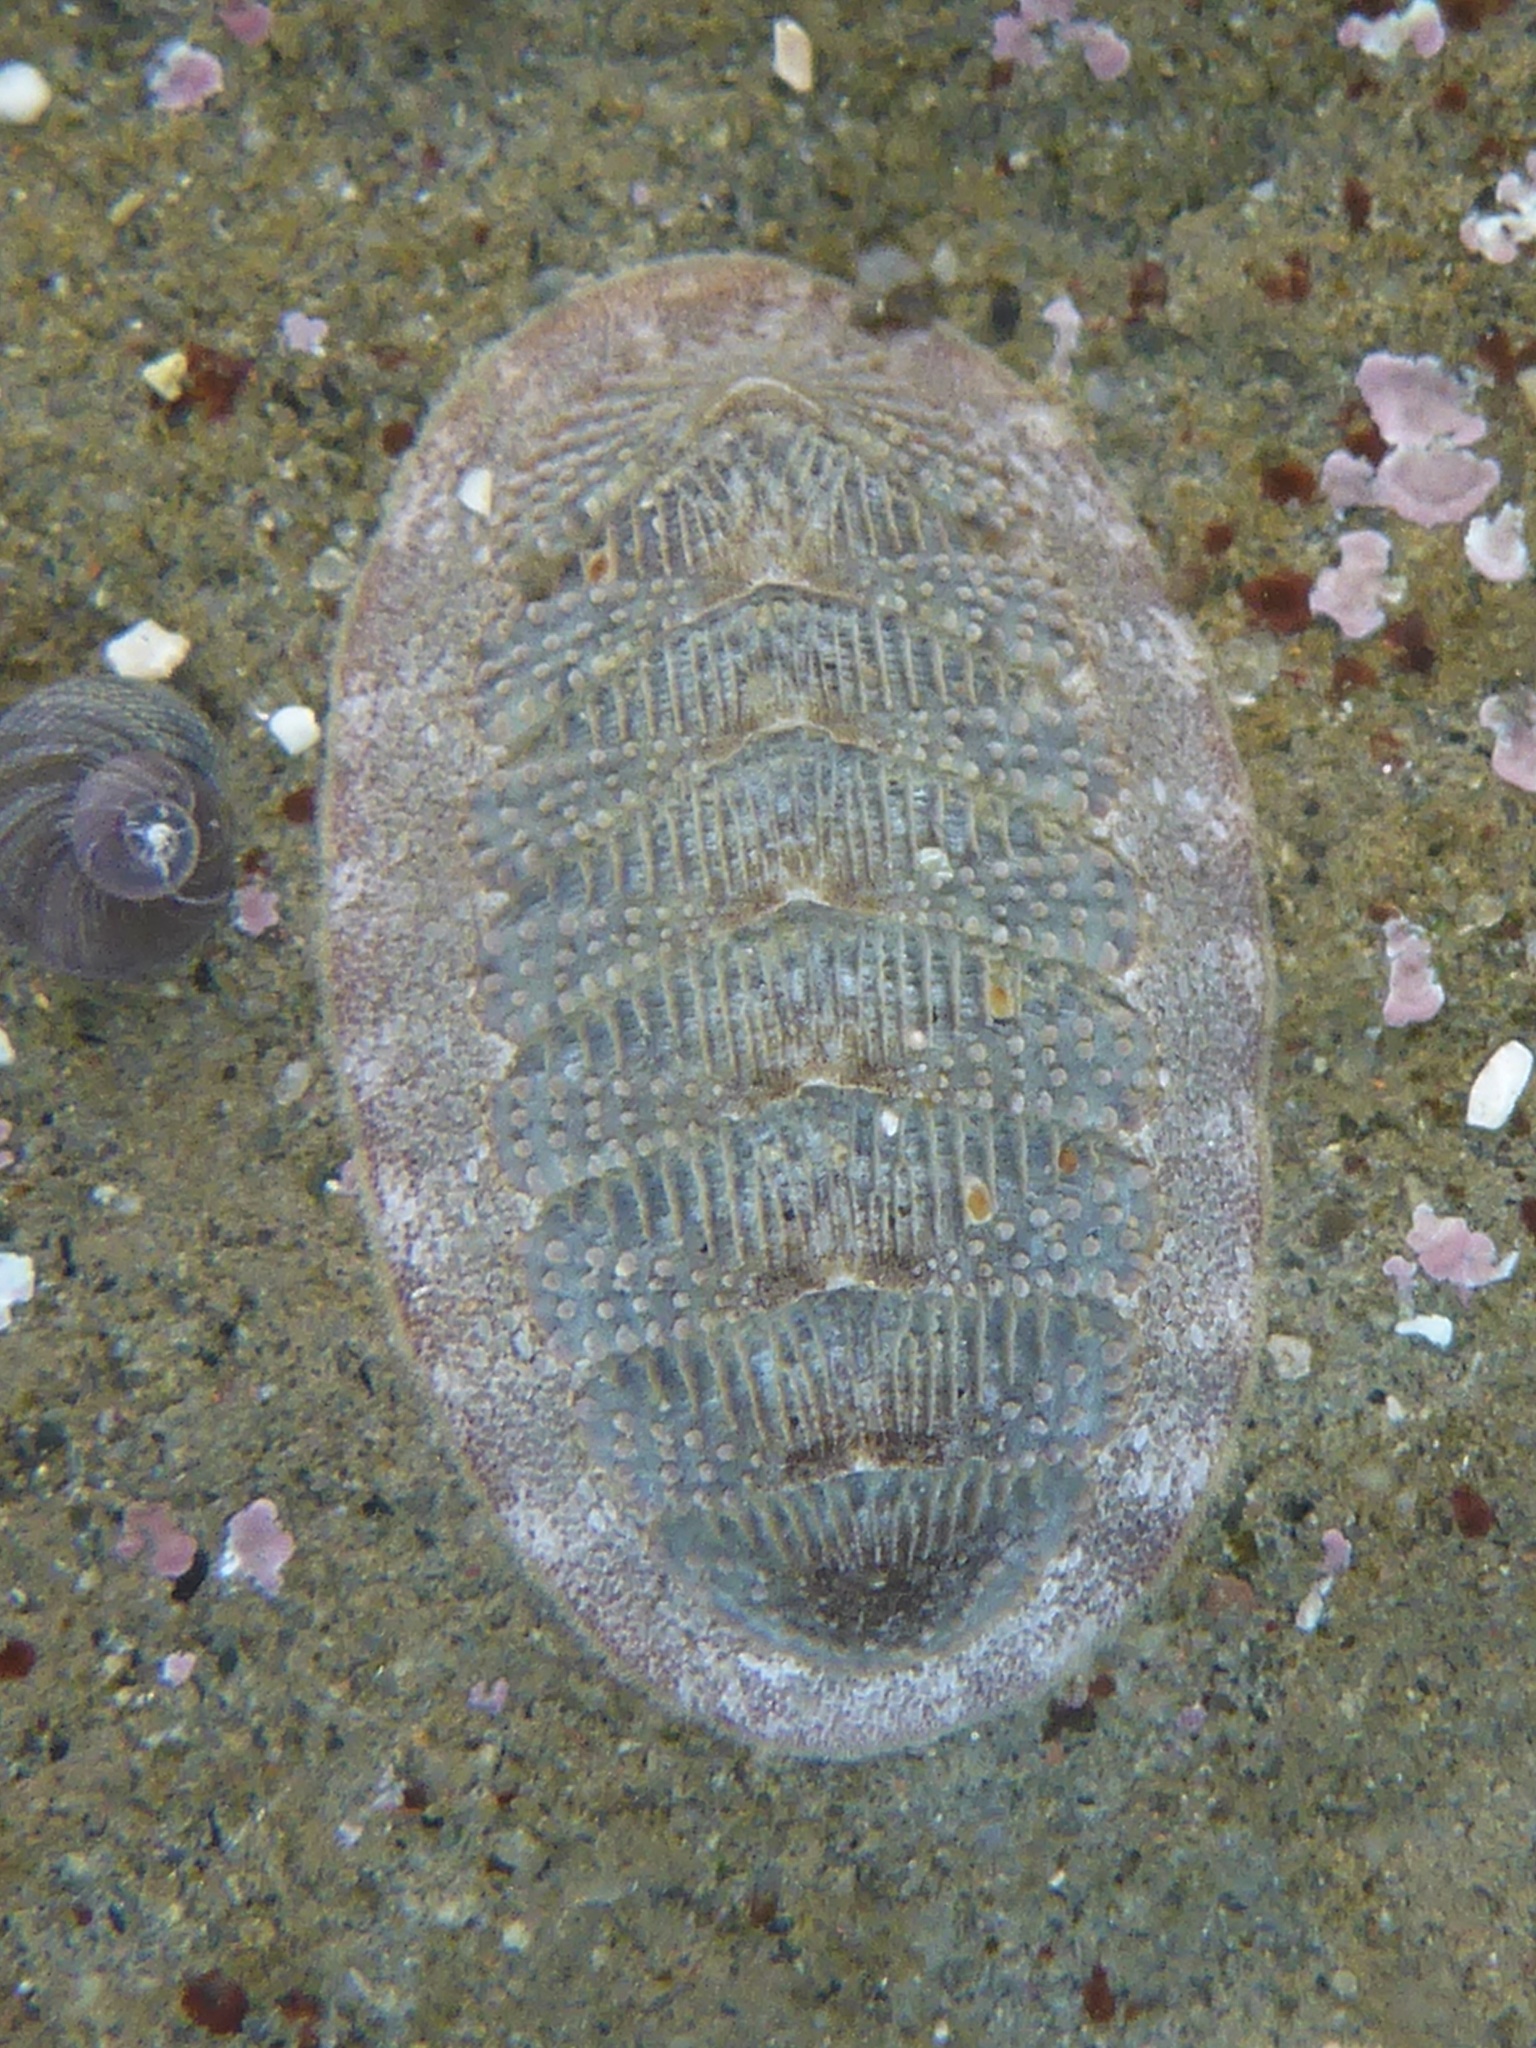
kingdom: Animalia
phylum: Mollusca
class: Polyplacophora
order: Chitonida
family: Ischnochitonidae
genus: Lepidozona
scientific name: Lepidozona cooperi
